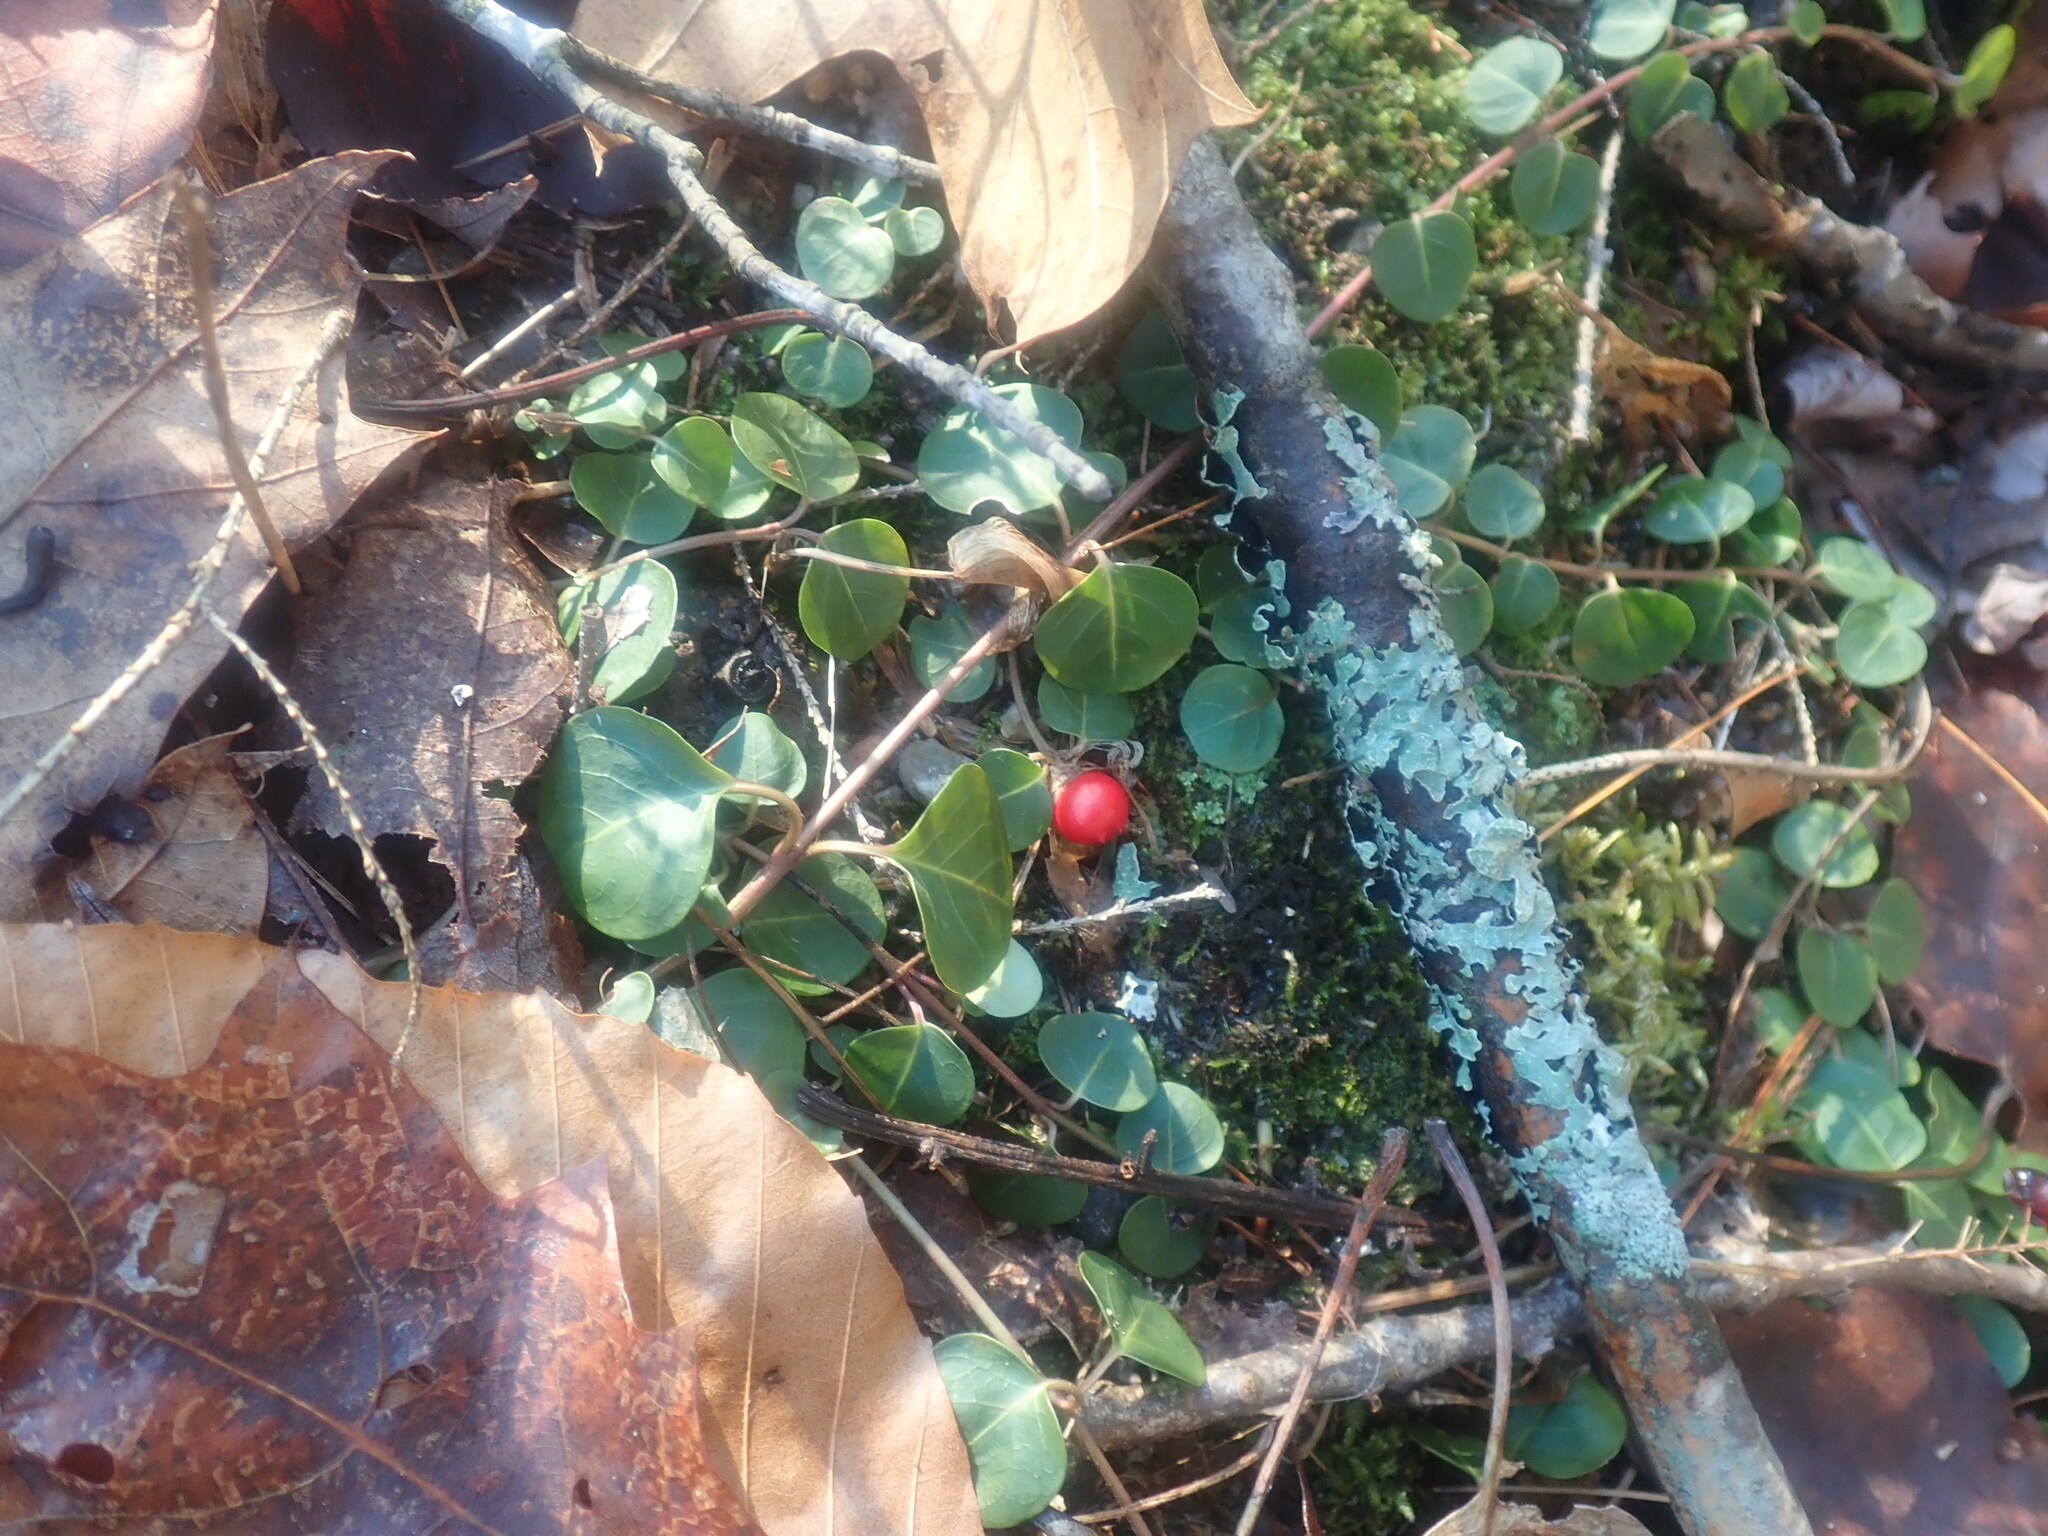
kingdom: Plantae
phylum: Tracheophyta
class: Magnoliopsida
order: Gentianales
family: Rubiaceae
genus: Mitchella
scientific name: Mitchella repens
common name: Partridge-berry
